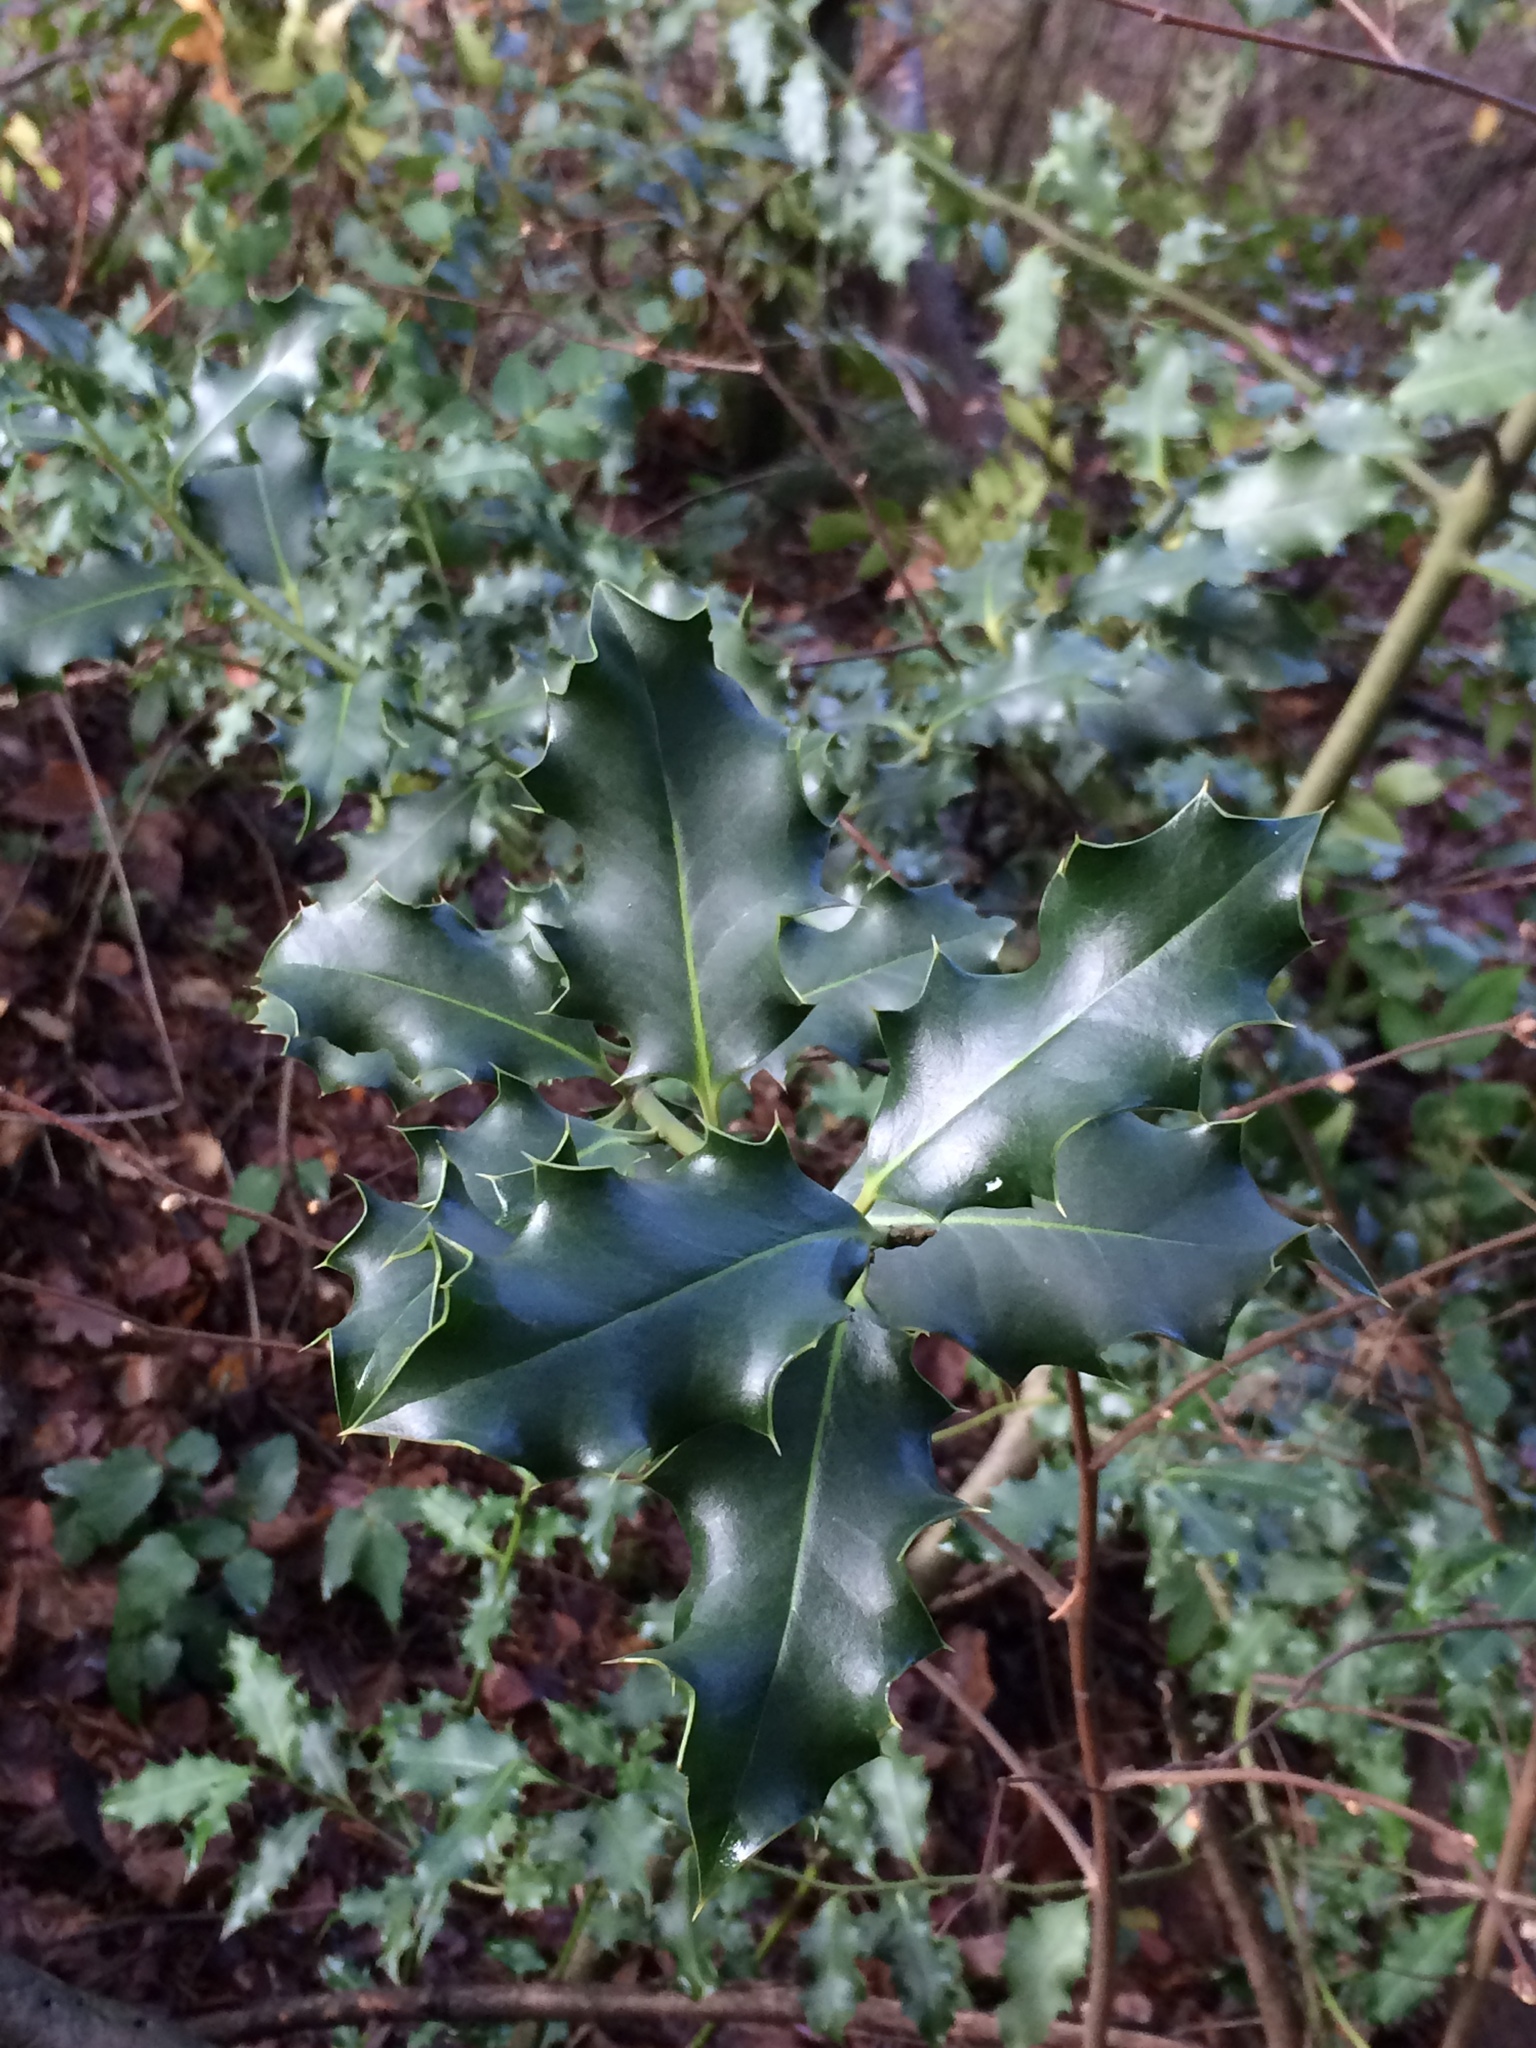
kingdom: Plantae
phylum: Tracheophyta
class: Magnoliopsida
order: Aquifoliales
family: Aquifoliaceae
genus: Ilex
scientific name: Ilex aquifolium
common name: English holly
